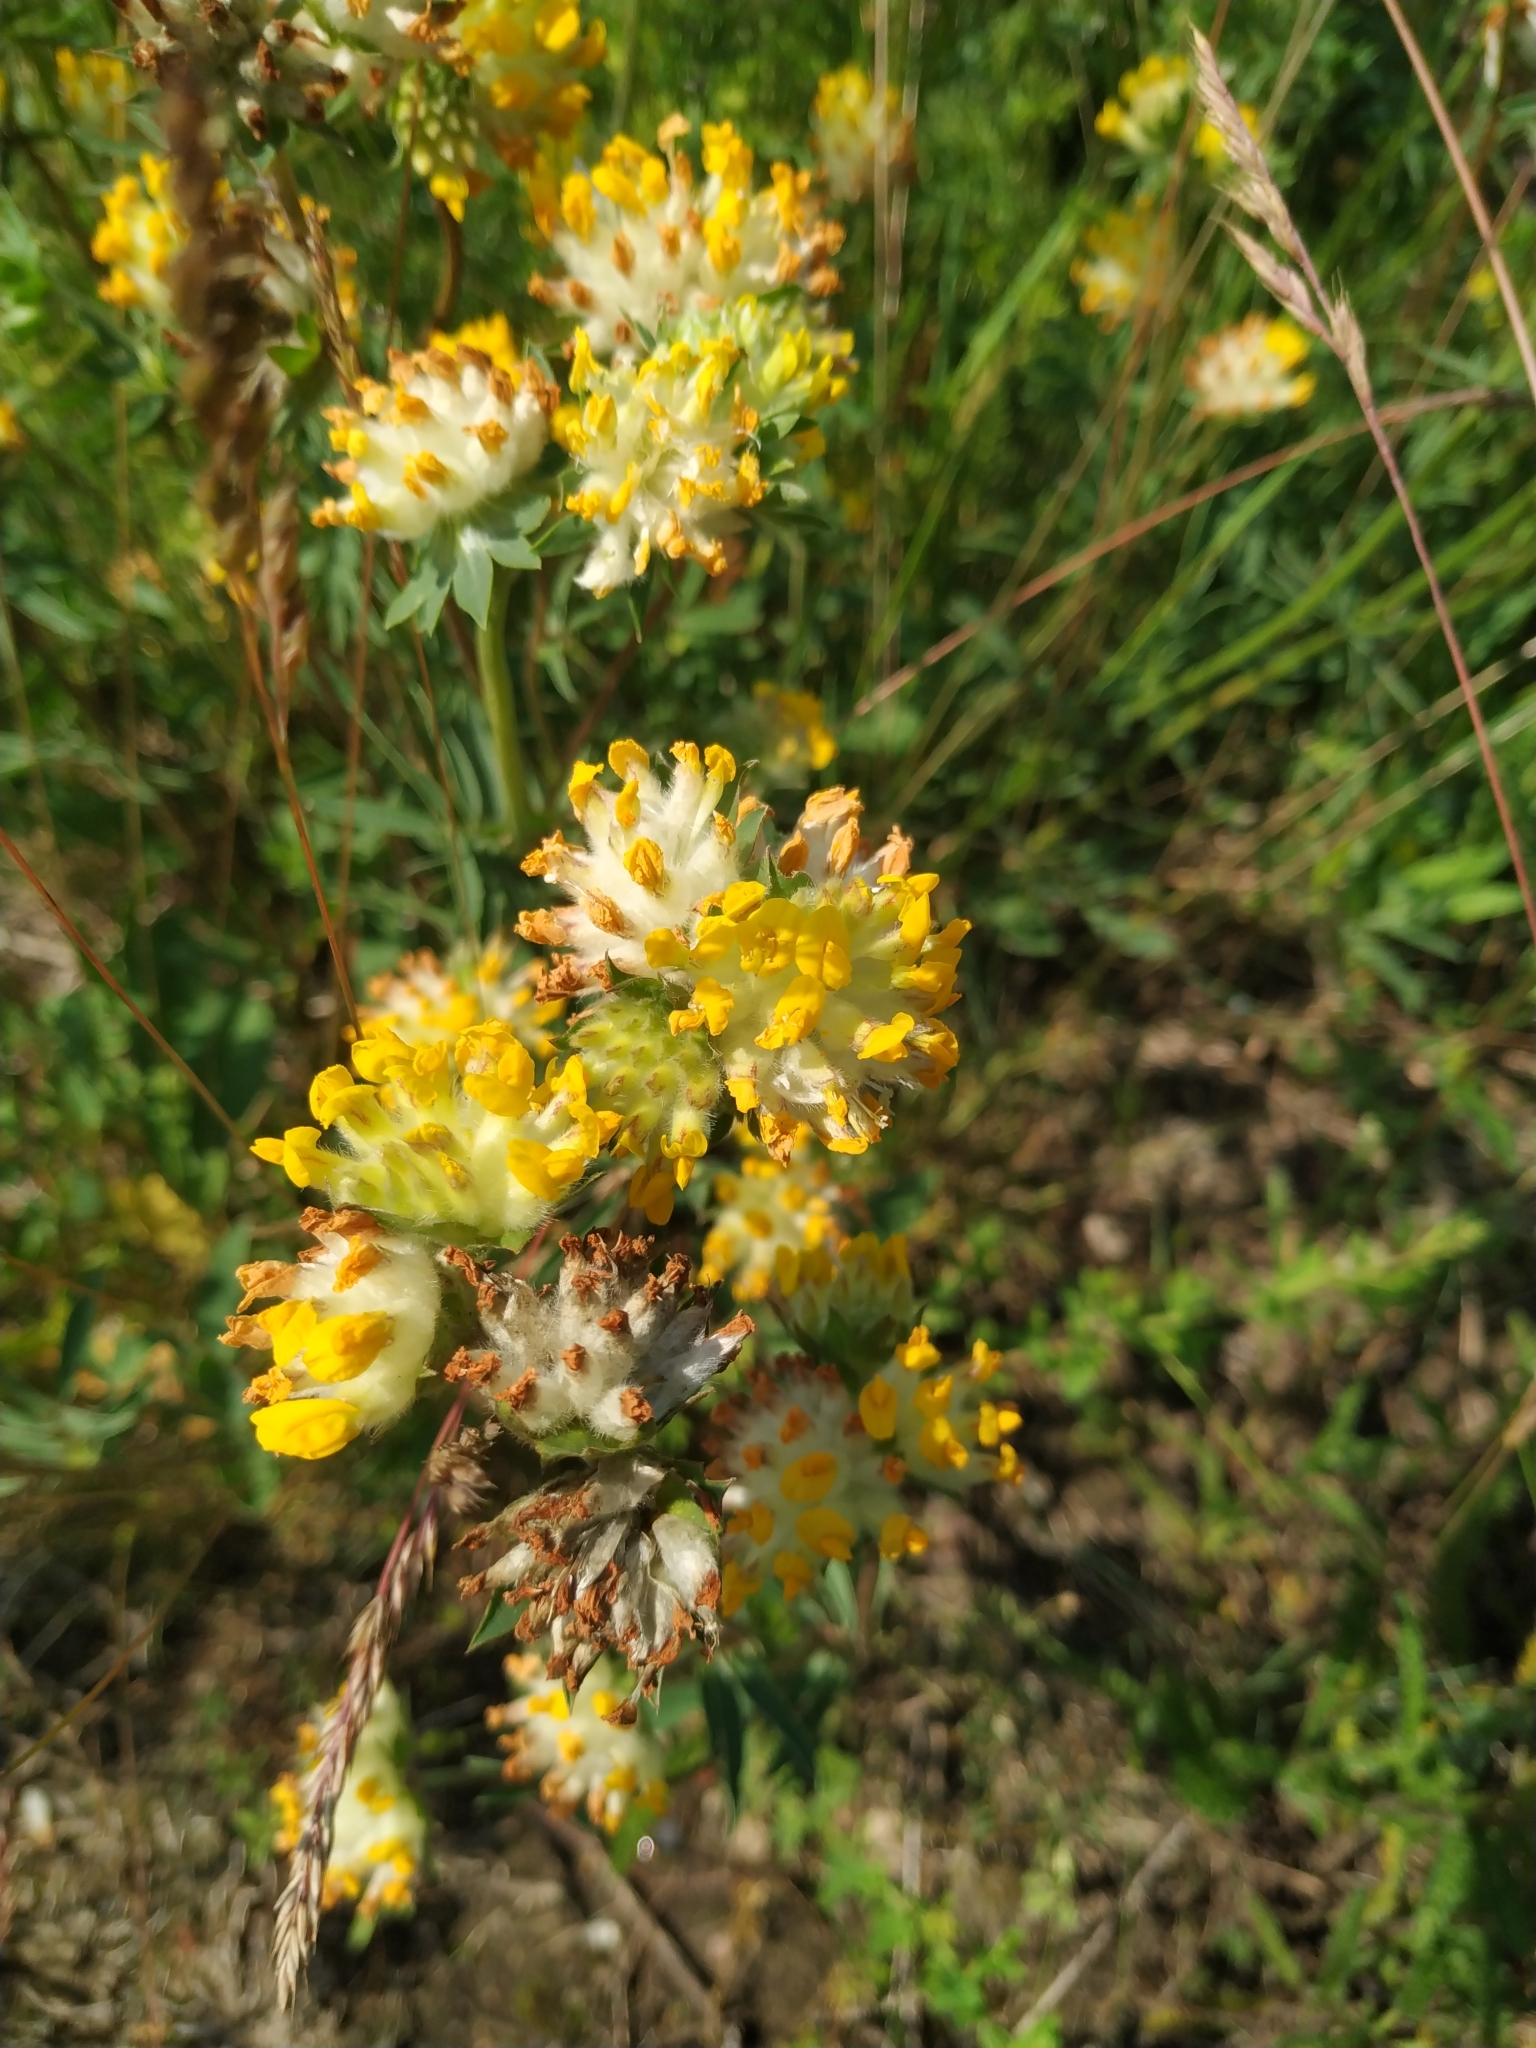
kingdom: Plantae
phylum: Tracheophyta
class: Magnoliopsida
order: Fabales
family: Fabaceae
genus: Anthyllis
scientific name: Anthyllis vulneraria
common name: Kidney vetch
